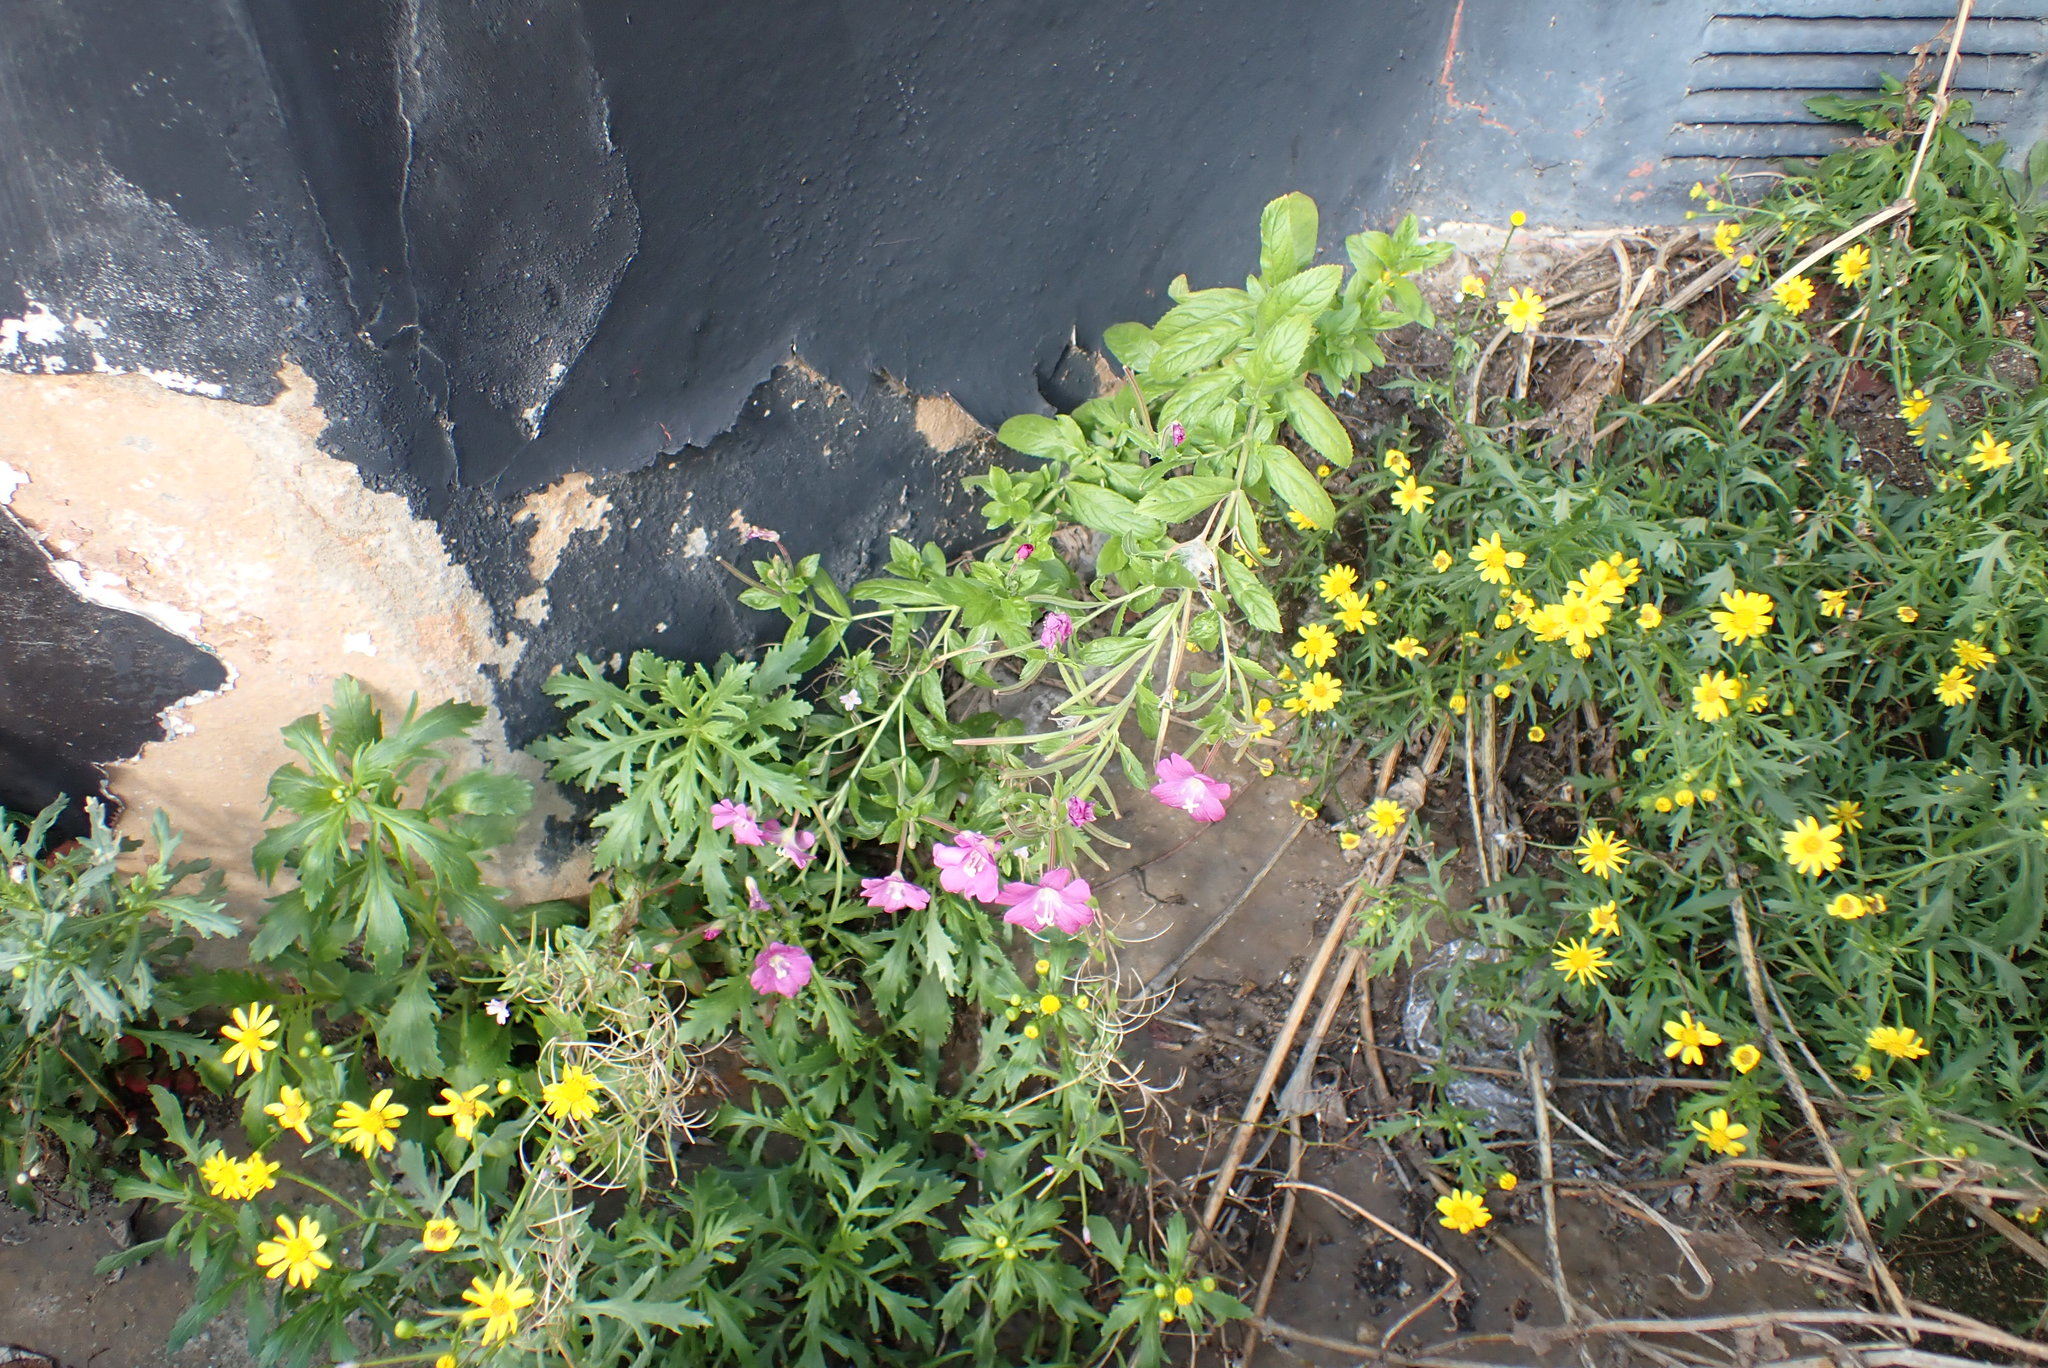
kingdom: Plantae
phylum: Tracheophyta
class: Magnoliopsida
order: Myrtales
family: Onagraceae
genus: Epilobium
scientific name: Epilobium hirsutum
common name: Great willowherb
